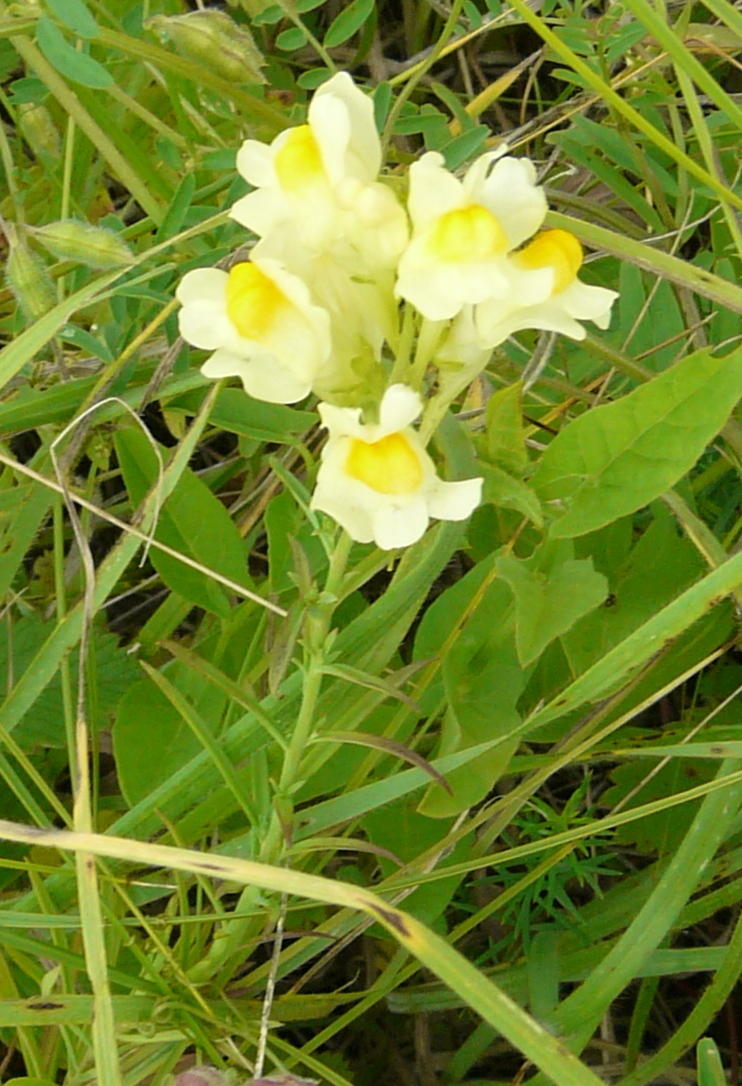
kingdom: Plantae
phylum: Tracheophyta
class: Magnoliopsida
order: Lamiales
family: Plantaginaceae
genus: Linaria
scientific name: Linaria vulgaris
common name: Butter and eggs
